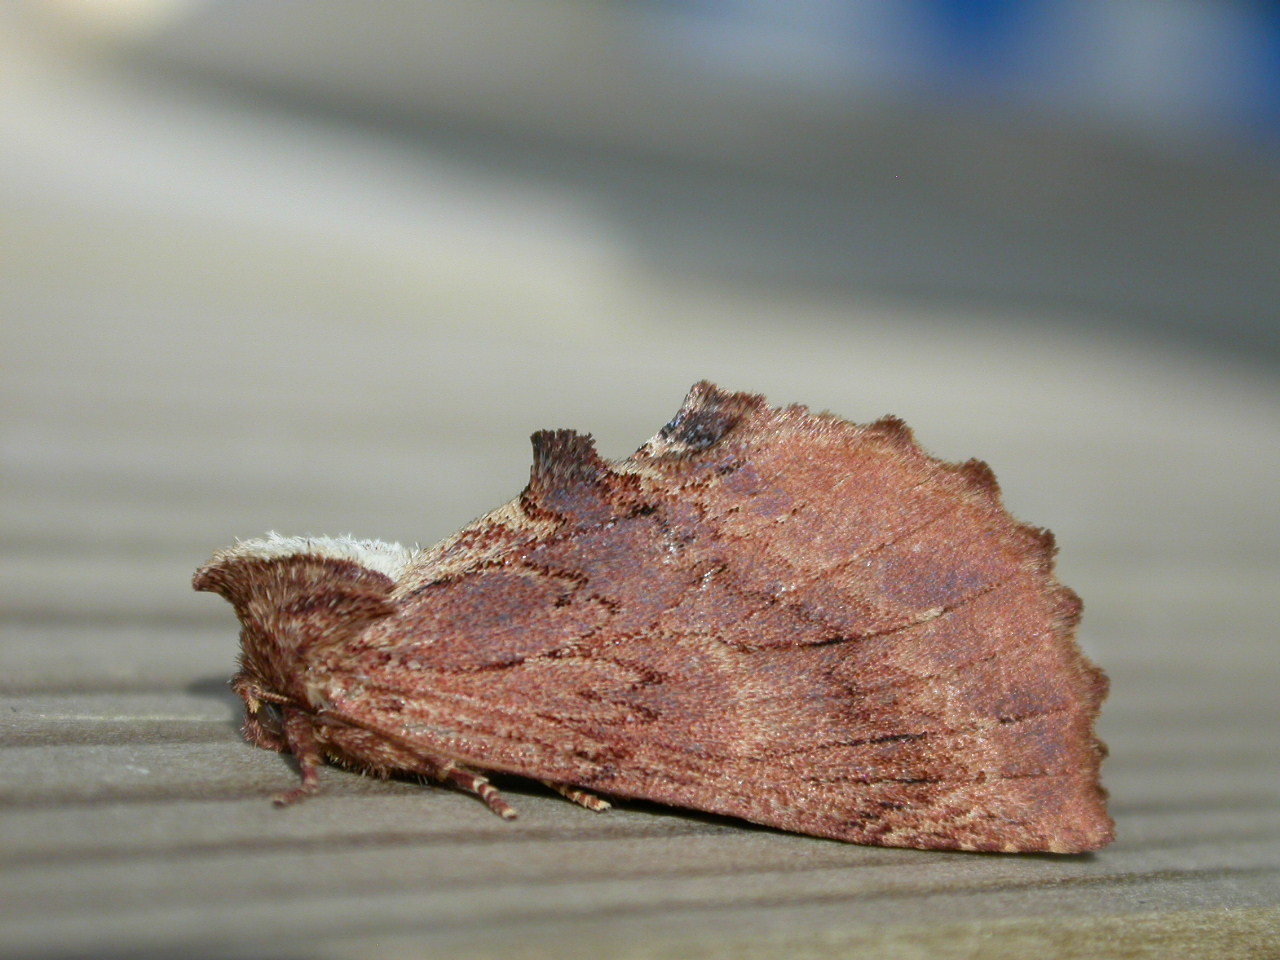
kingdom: Animalia
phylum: Arthropoda
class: Insecta
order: Lepidoptera
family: Notodontidae
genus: Ptilodon
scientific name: Ptilodon capucina
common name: Coxcomb prominent
